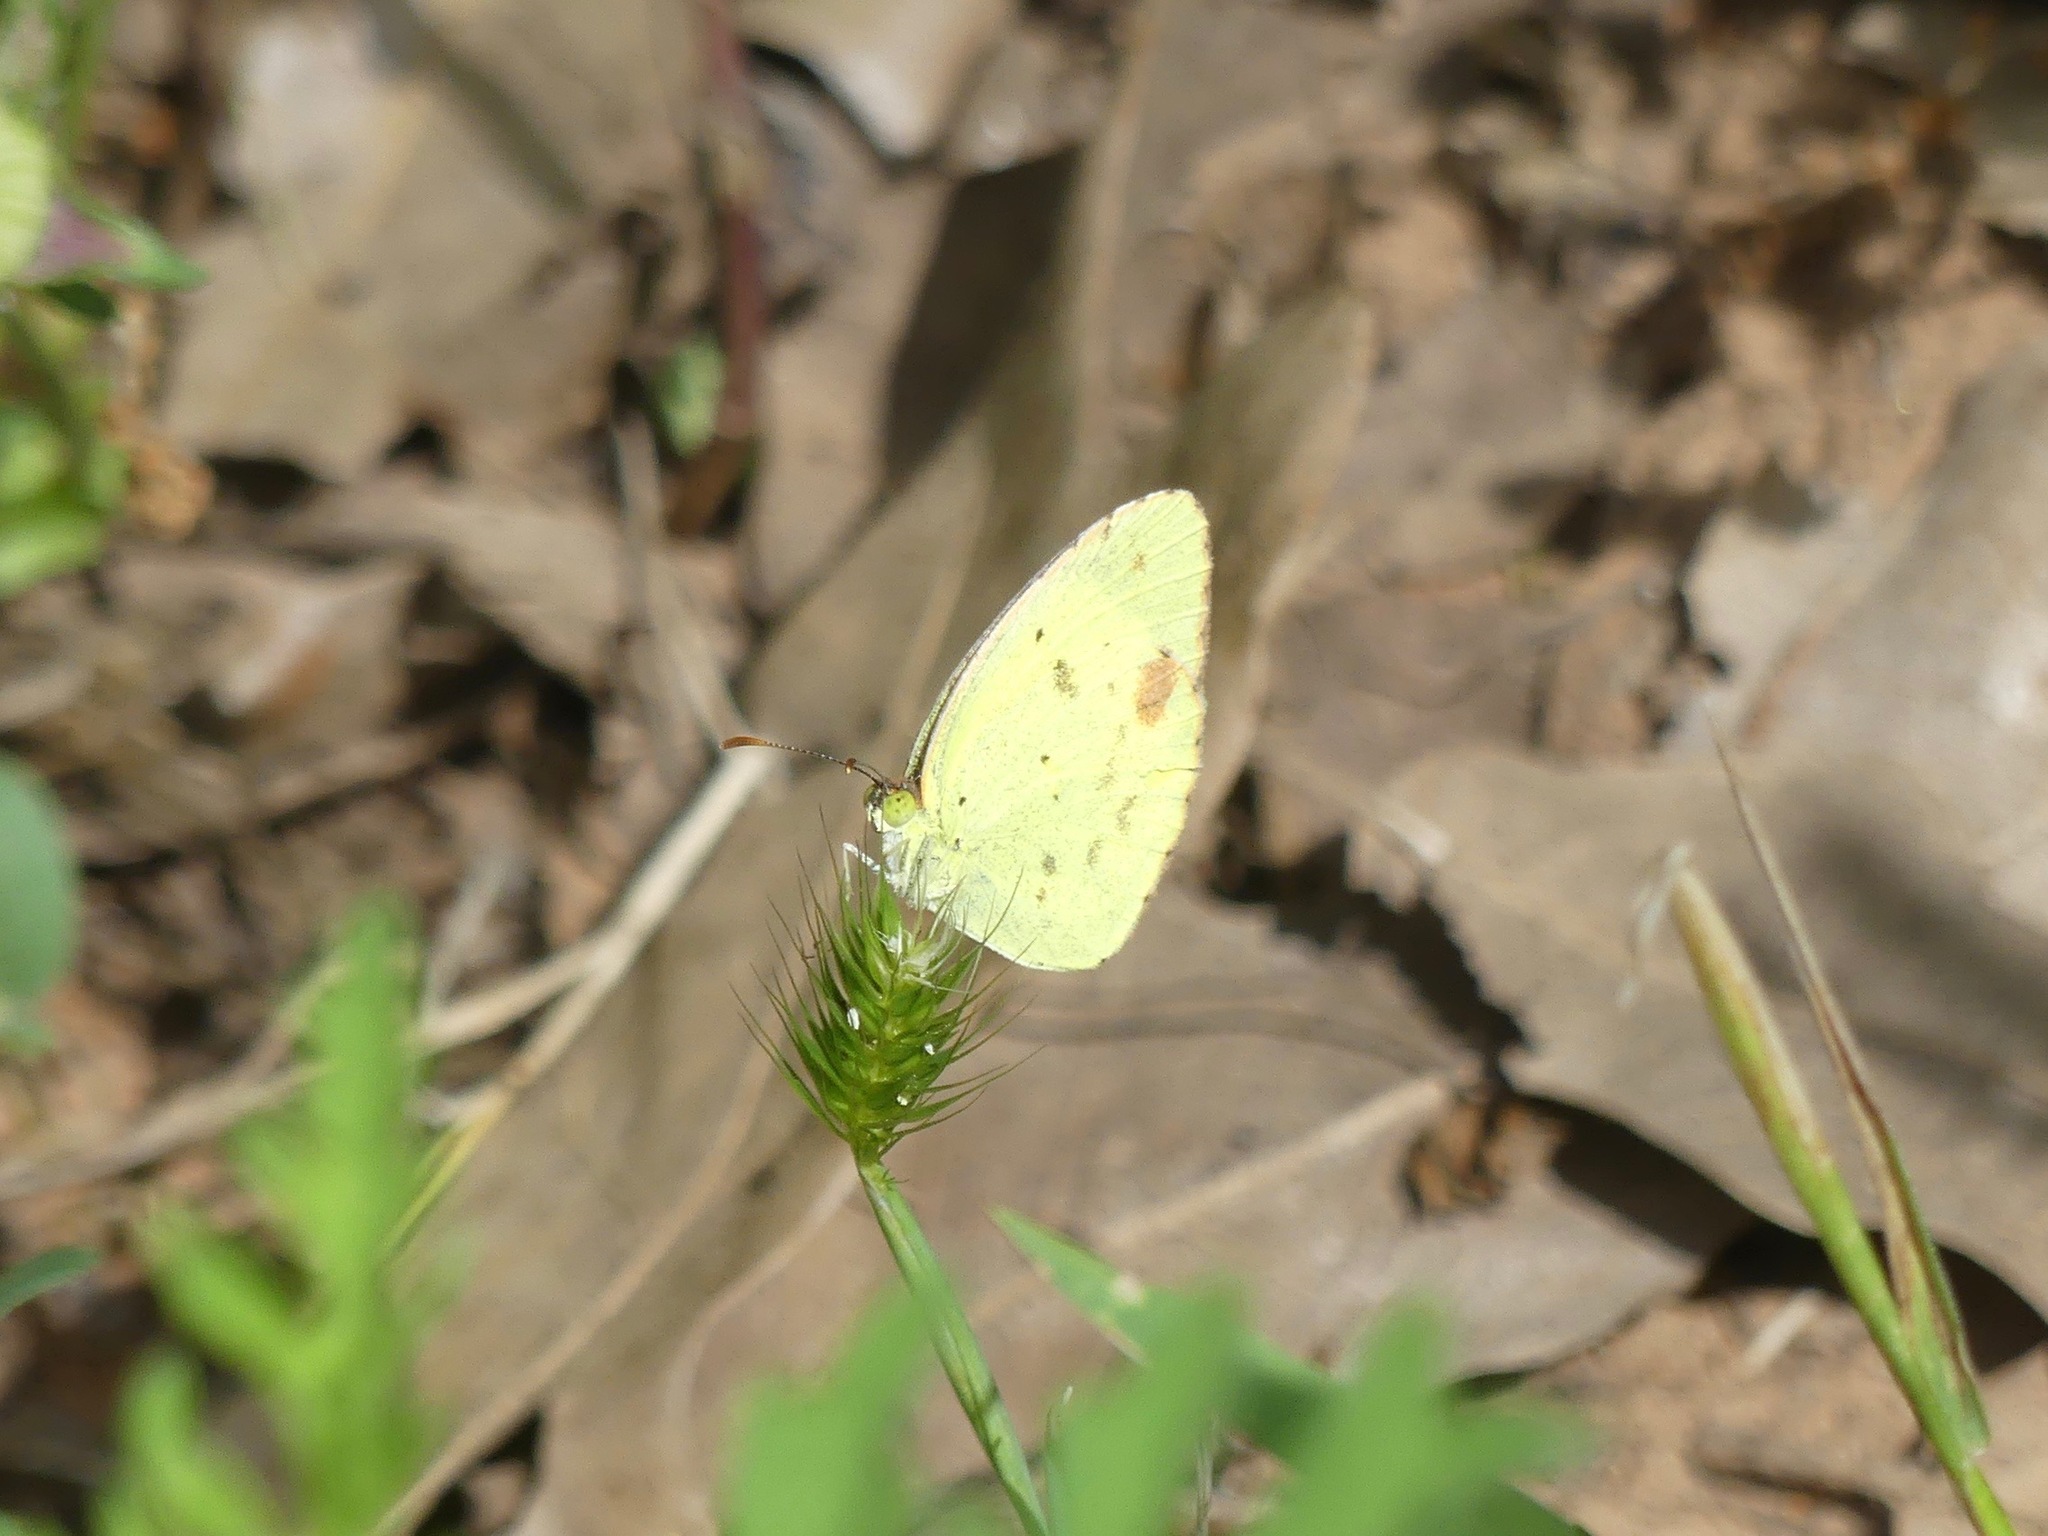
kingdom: Animalia
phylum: Arthropoda
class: Insecta
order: Lepidoptera
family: Pieridae
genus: Pyrisitia
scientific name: Pyrisitia lisa
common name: Little yellow
